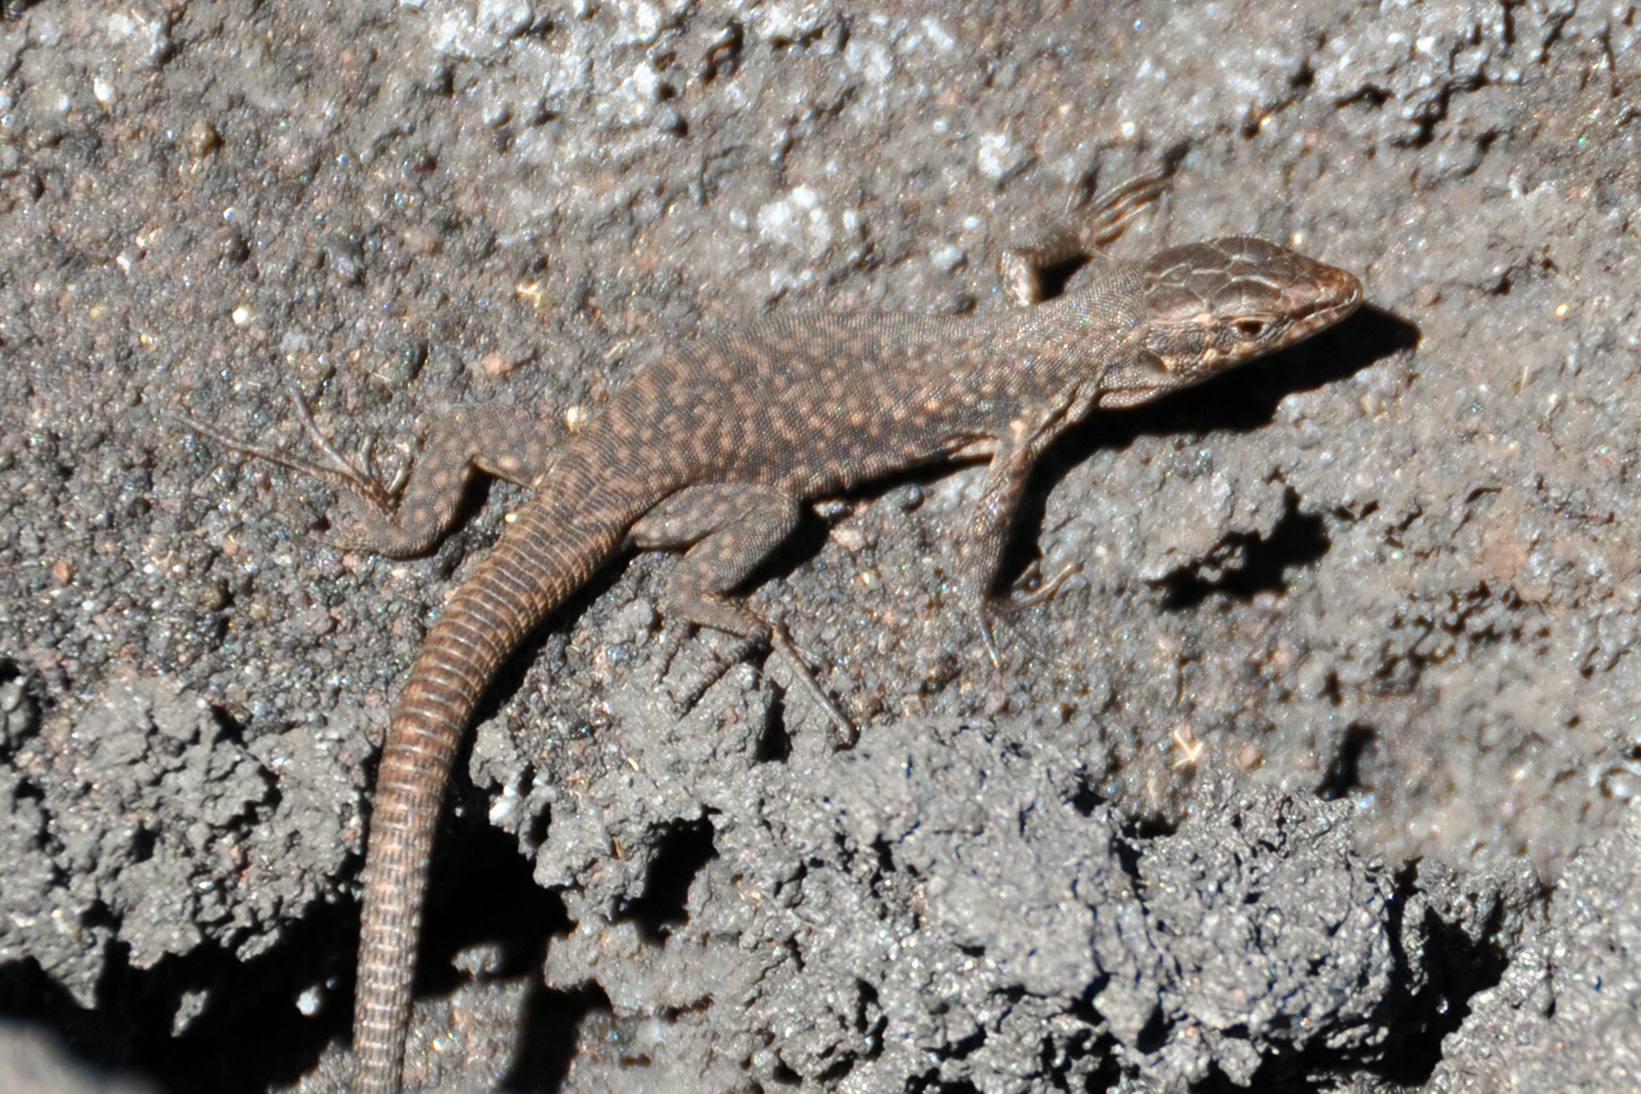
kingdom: Animalia
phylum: Chordata
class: Squamata
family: Lacertidae
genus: Podarcis
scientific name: Podarcis siculus
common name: Italian wall lizard
